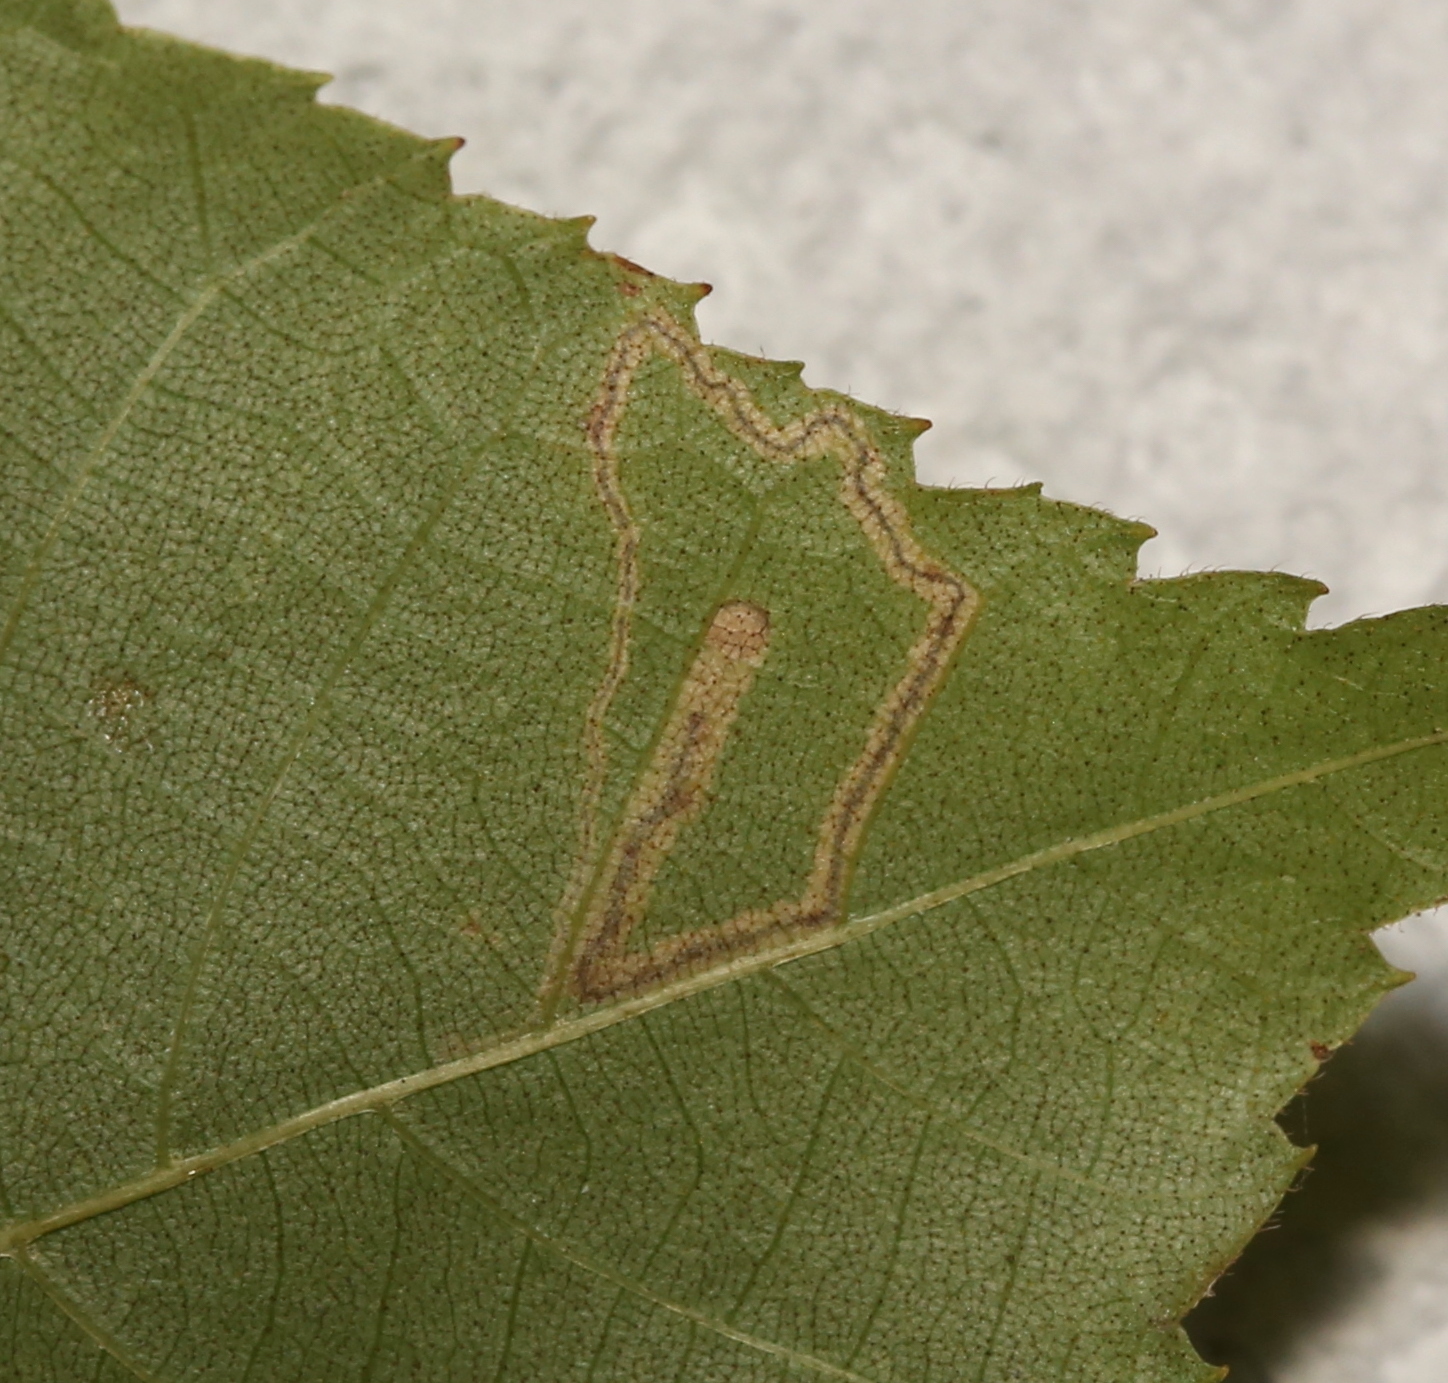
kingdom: Animalia
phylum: Arthropoda
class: Insecta
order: Lepidoptera
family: Nepticulidae
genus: Stigmella
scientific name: Stigmella caryaefoliella
